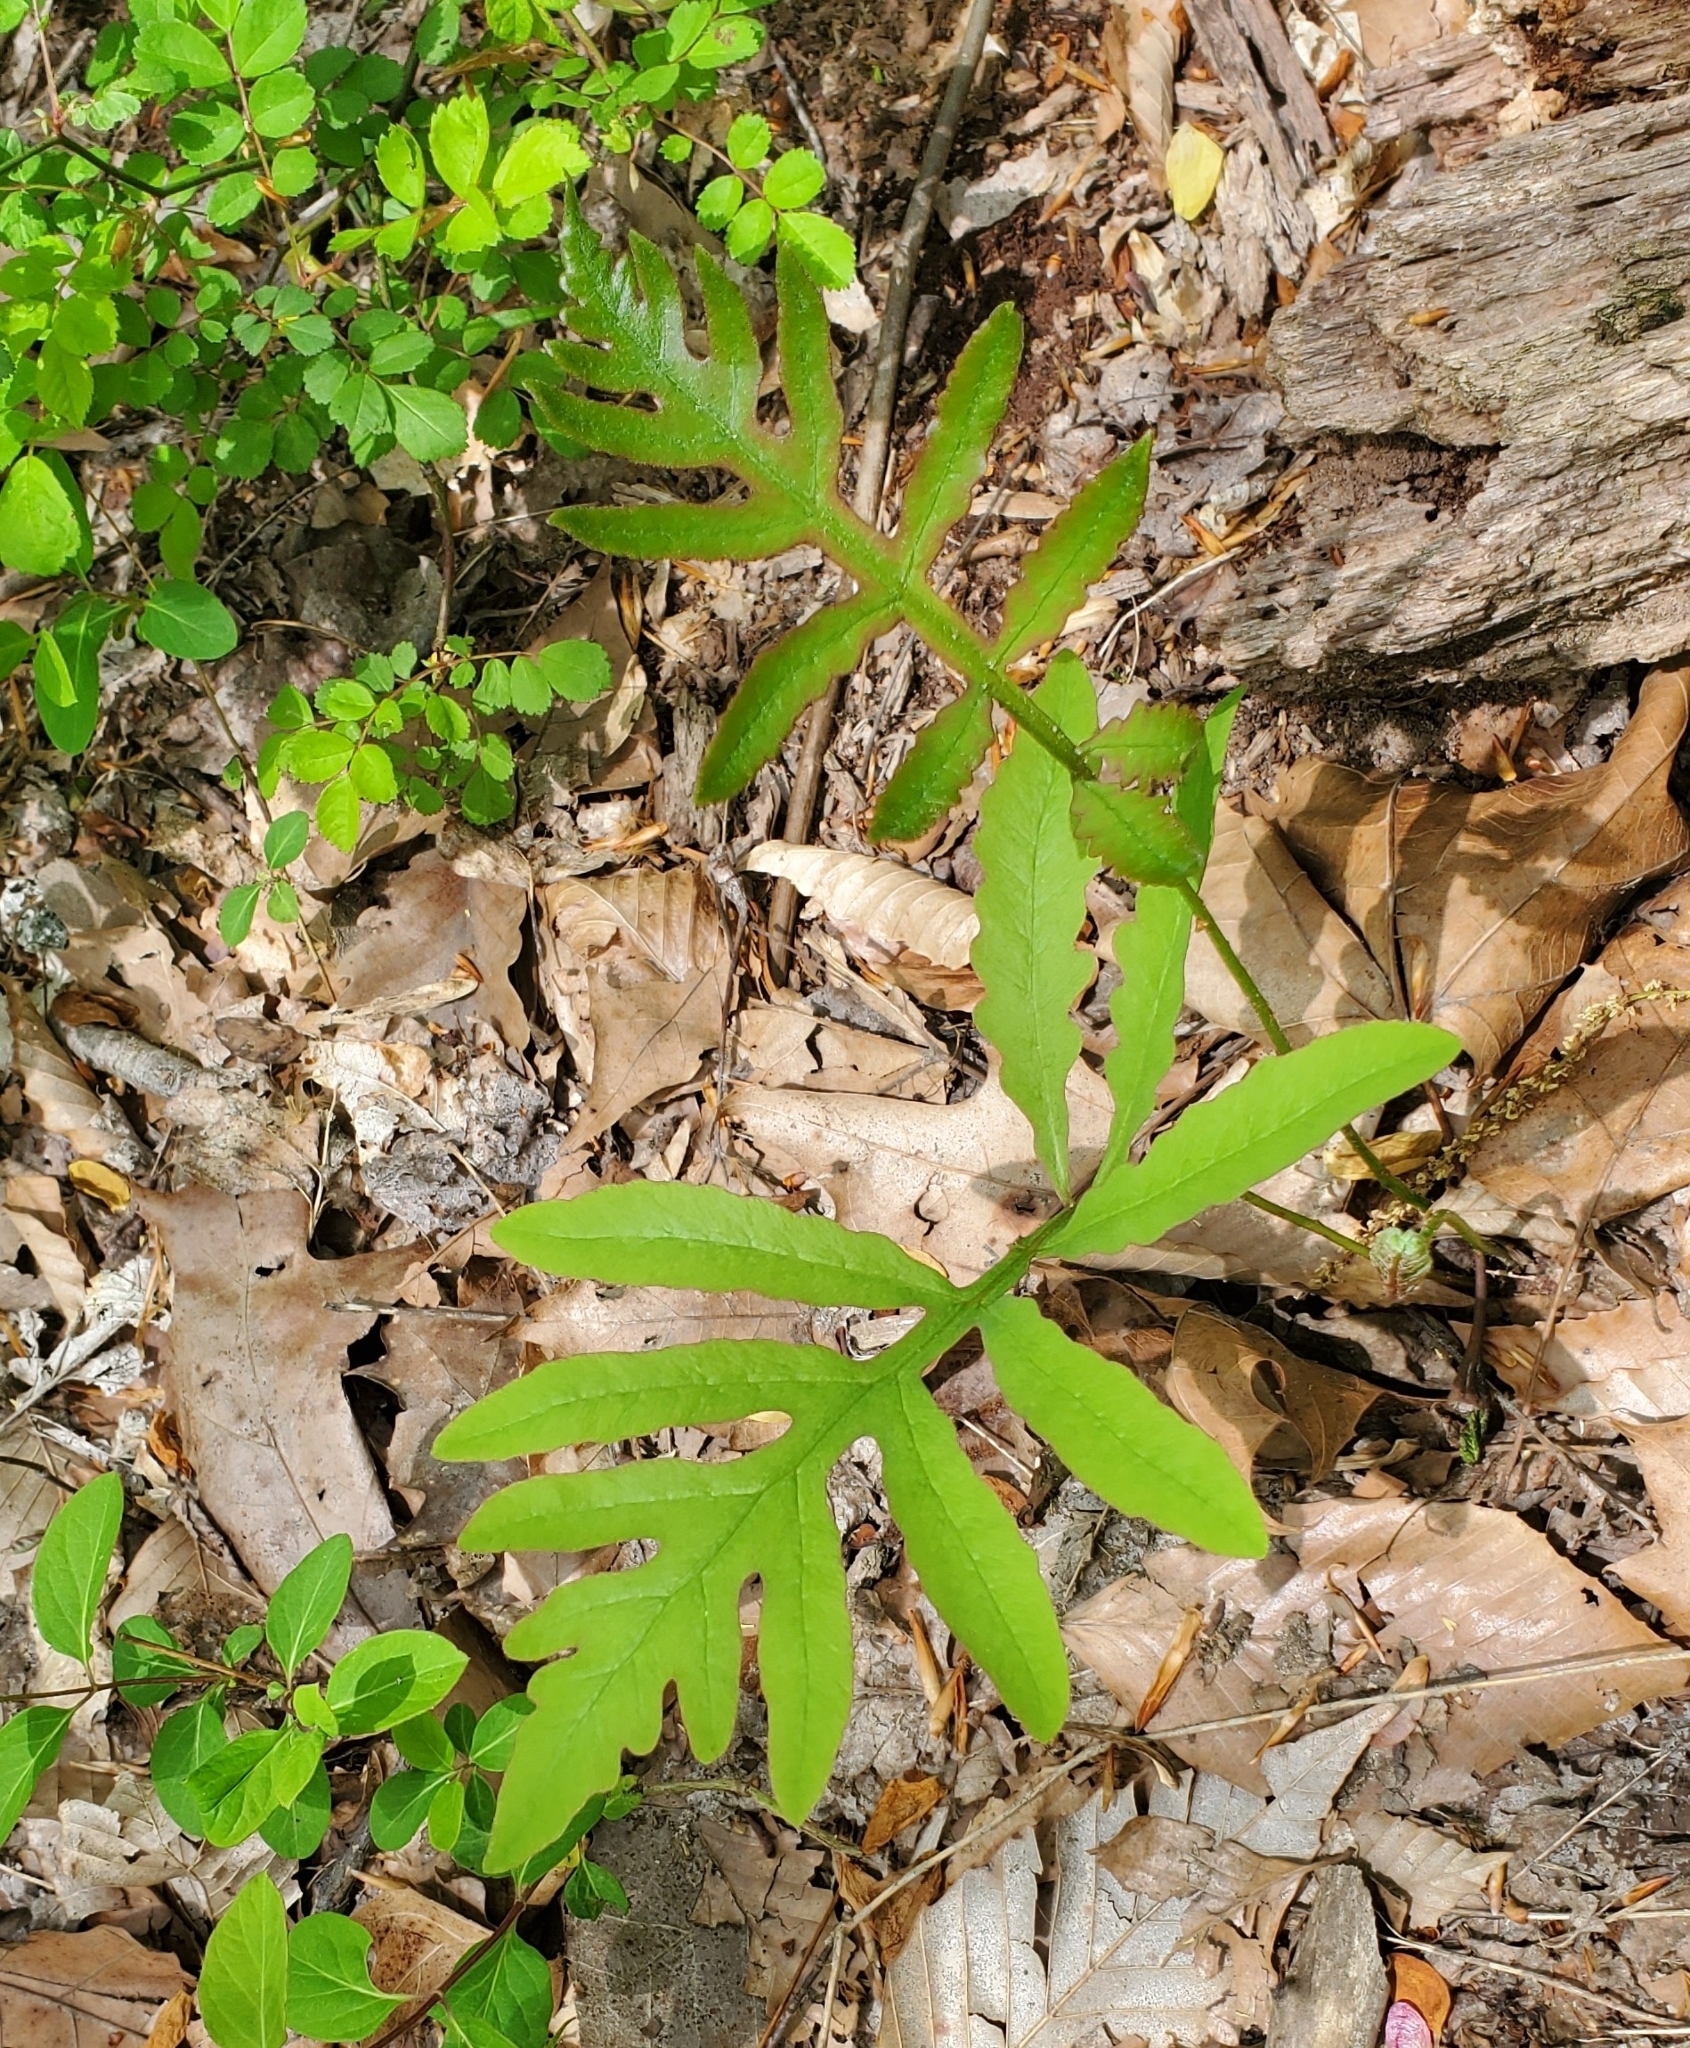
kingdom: Plantae
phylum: Tracheophyta
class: Polypodiopsida
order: Polypodiales
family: Onocleaceae
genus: Onoclea
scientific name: Onoclea sensibilis
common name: Sensitive fern
